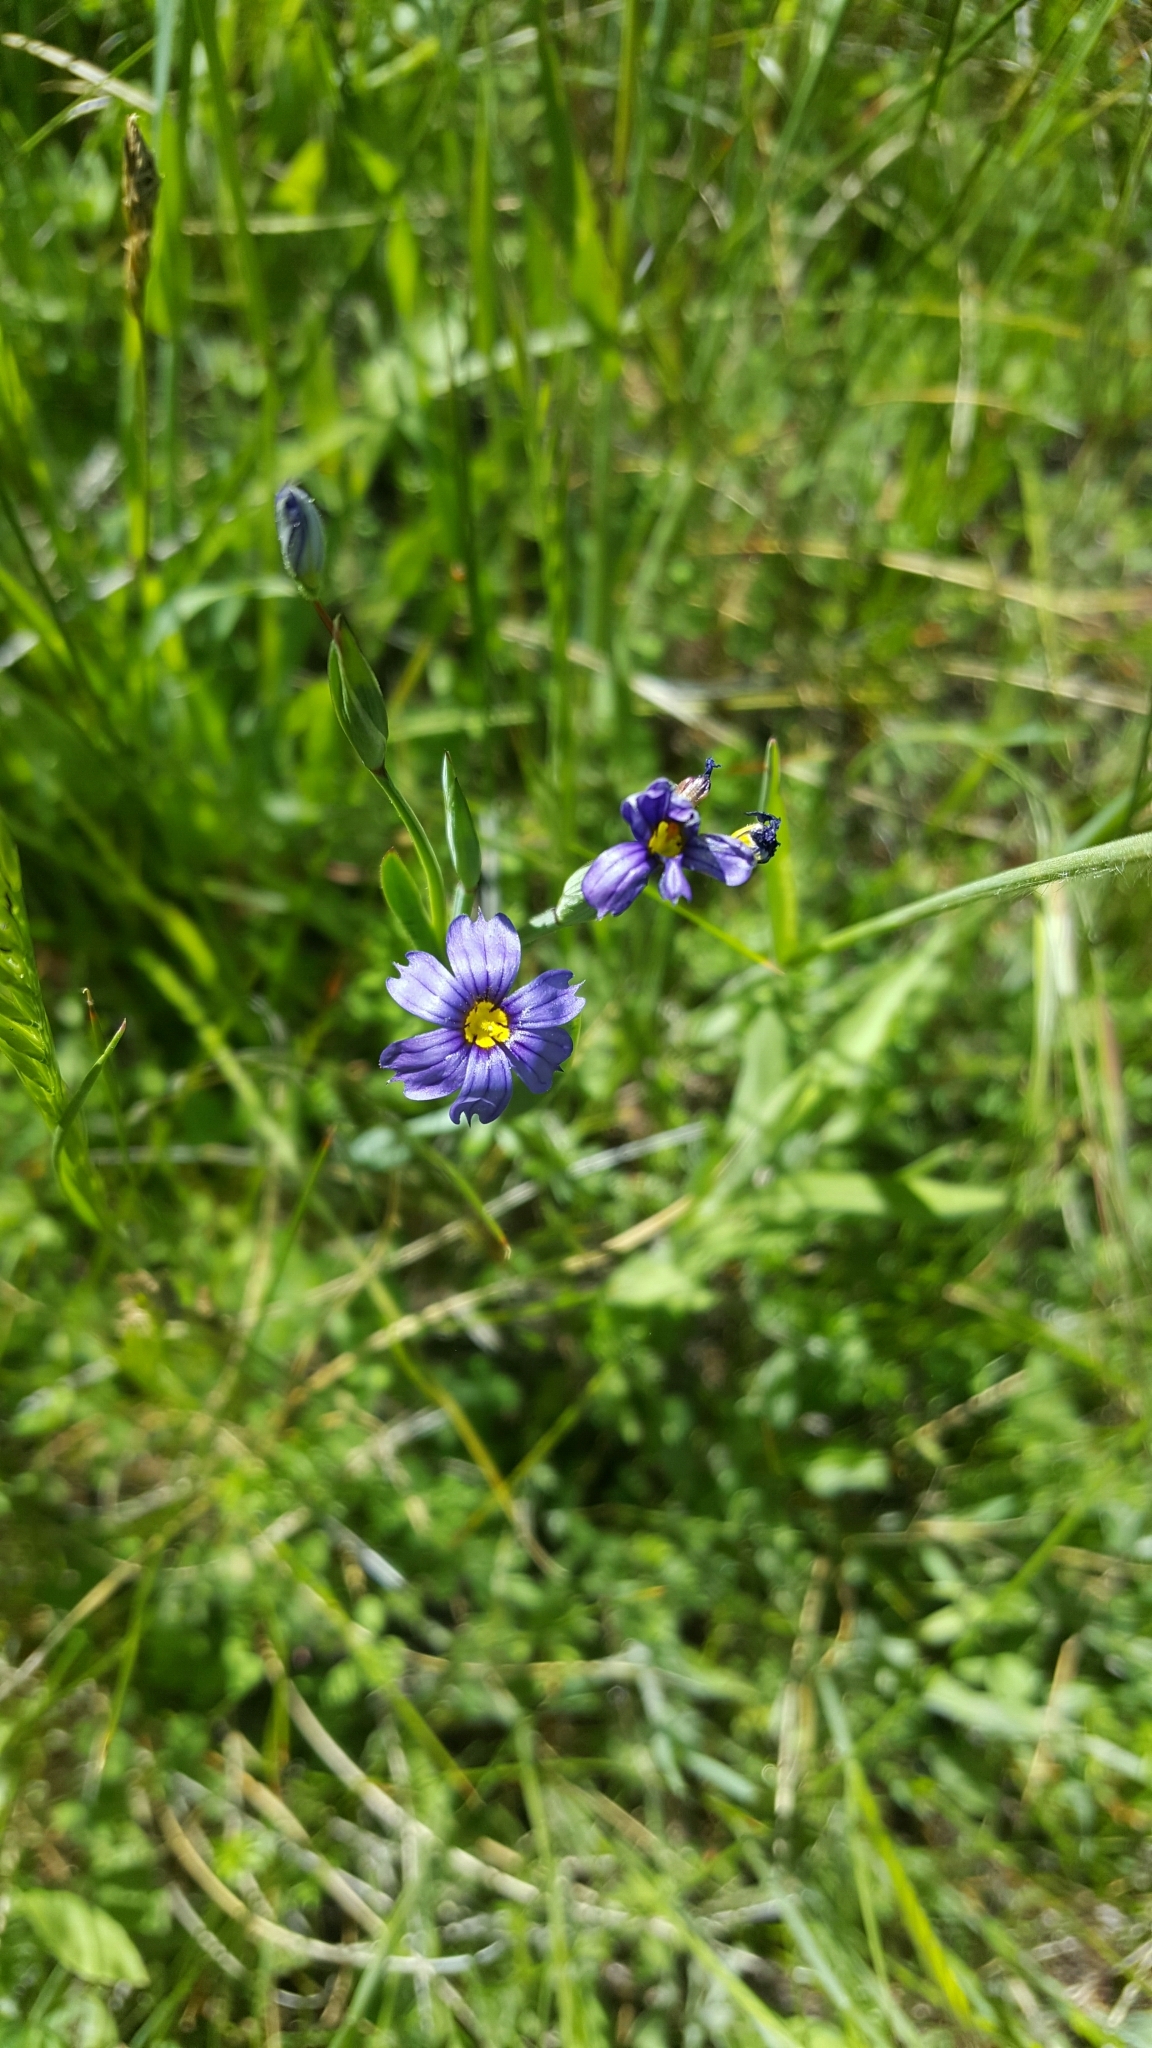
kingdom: Plantae
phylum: Tracheophyta
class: Liliopsida
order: Asparagales
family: Iridaceae
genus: Sisyrinchium
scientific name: Sisyrinchium bellum
